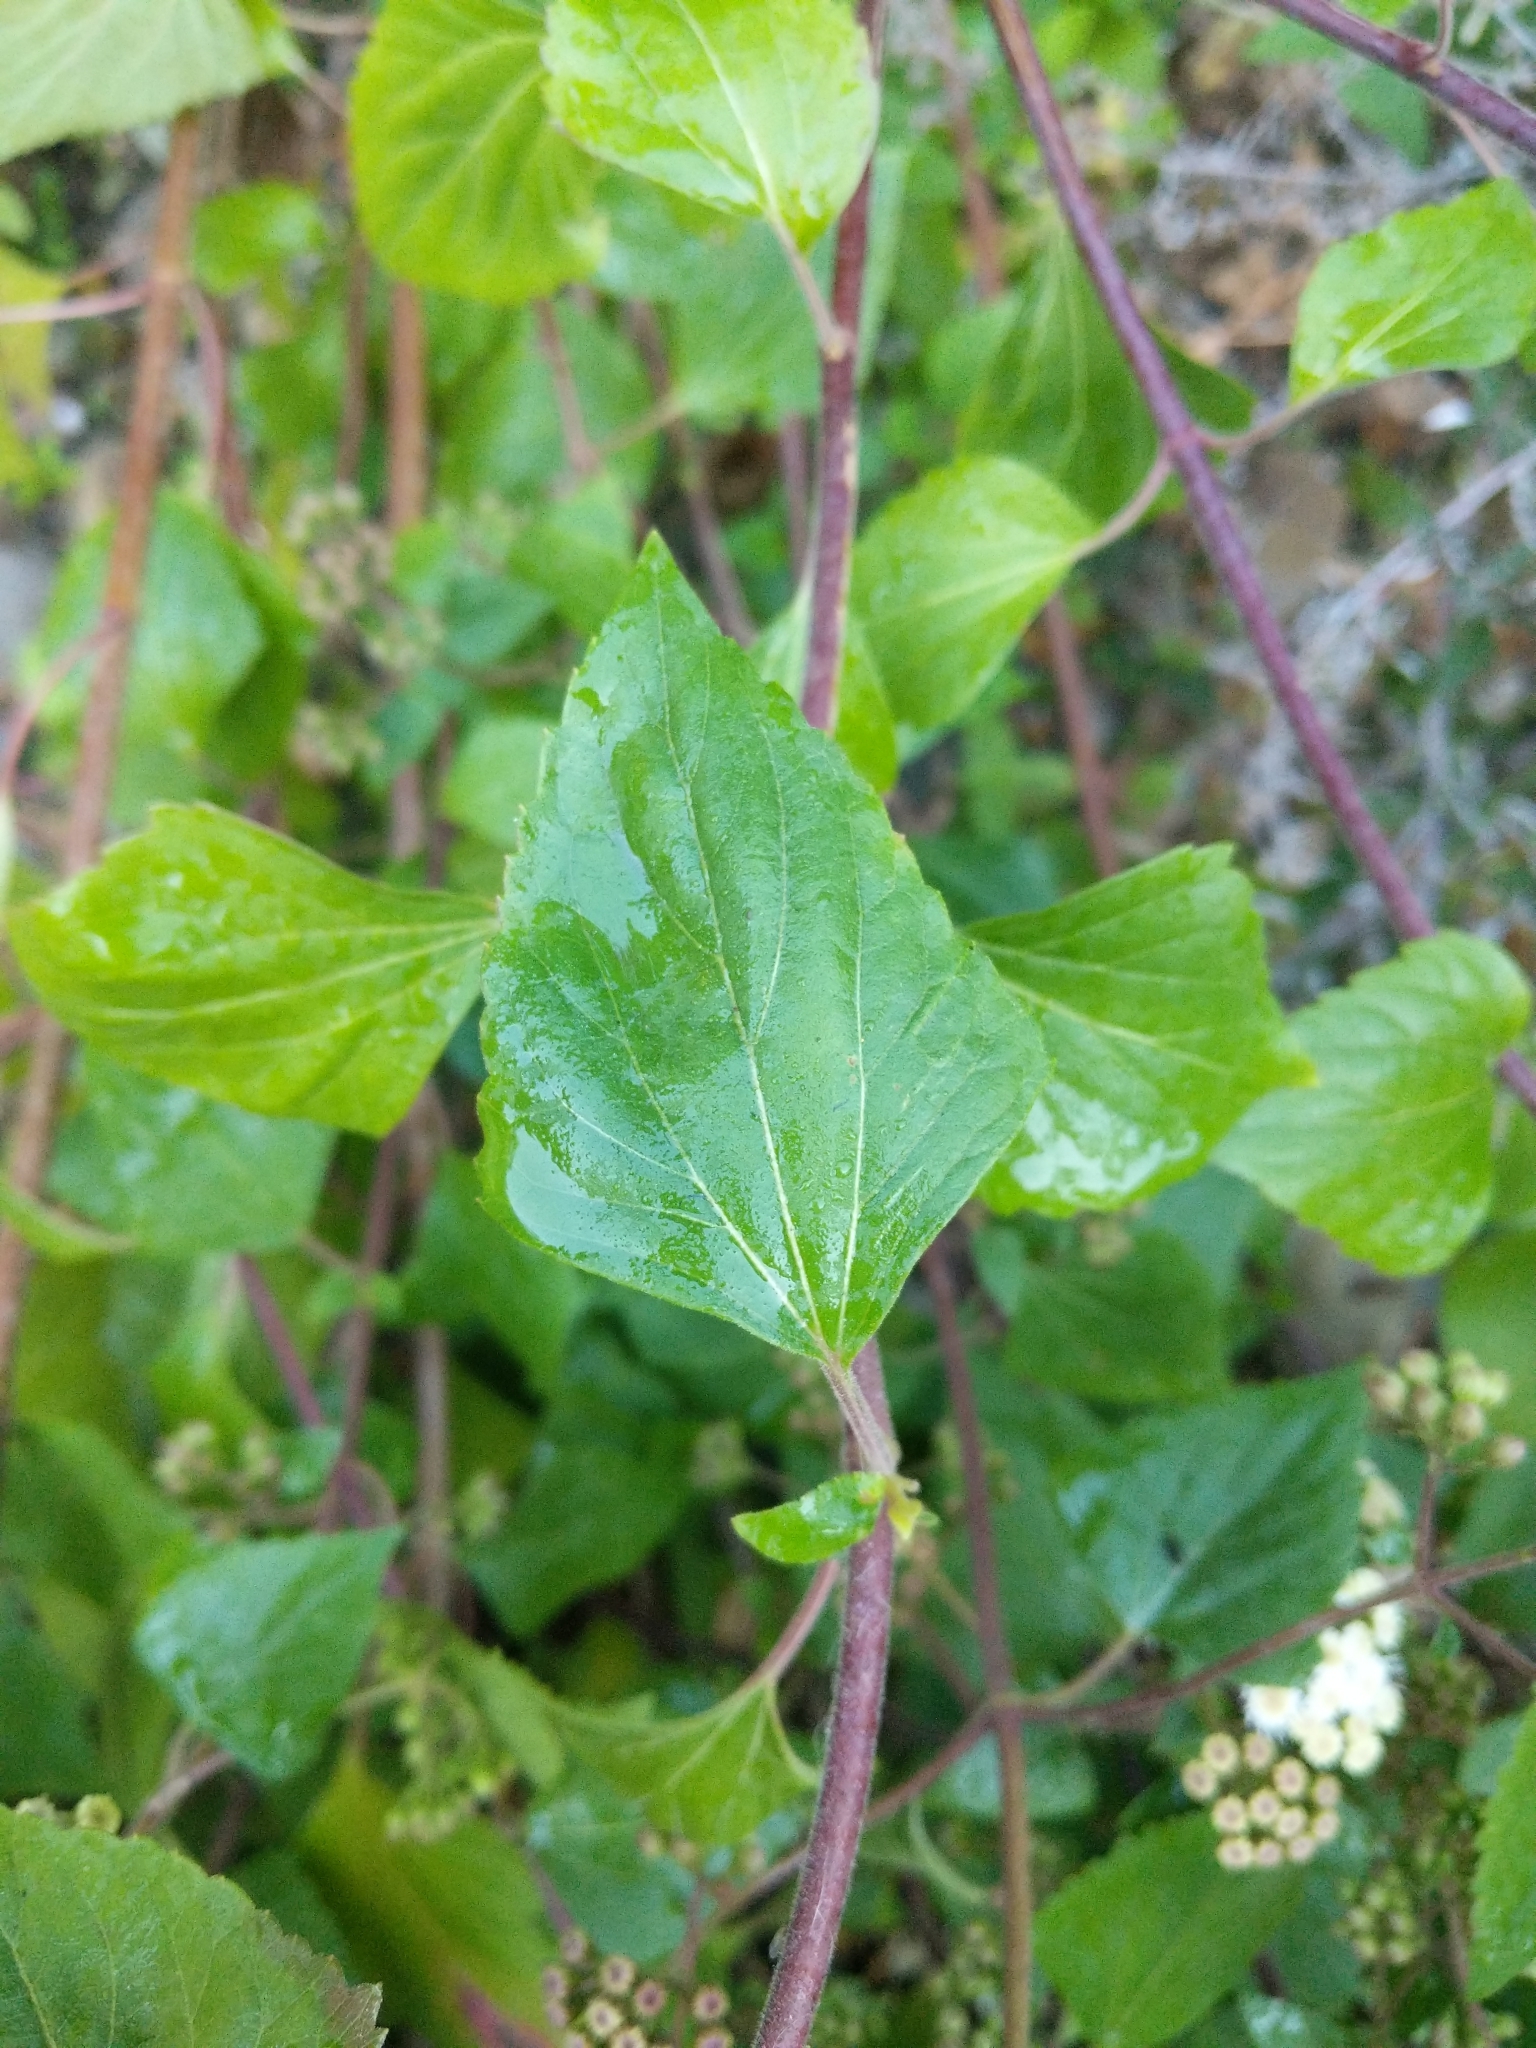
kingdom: Plantae
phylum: Tracheophyta
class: Magnoliopsida
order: Asterales
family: Asteraceae
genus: Ageratina
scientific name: Ageratina adenophora
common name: Sticky snakeroot
